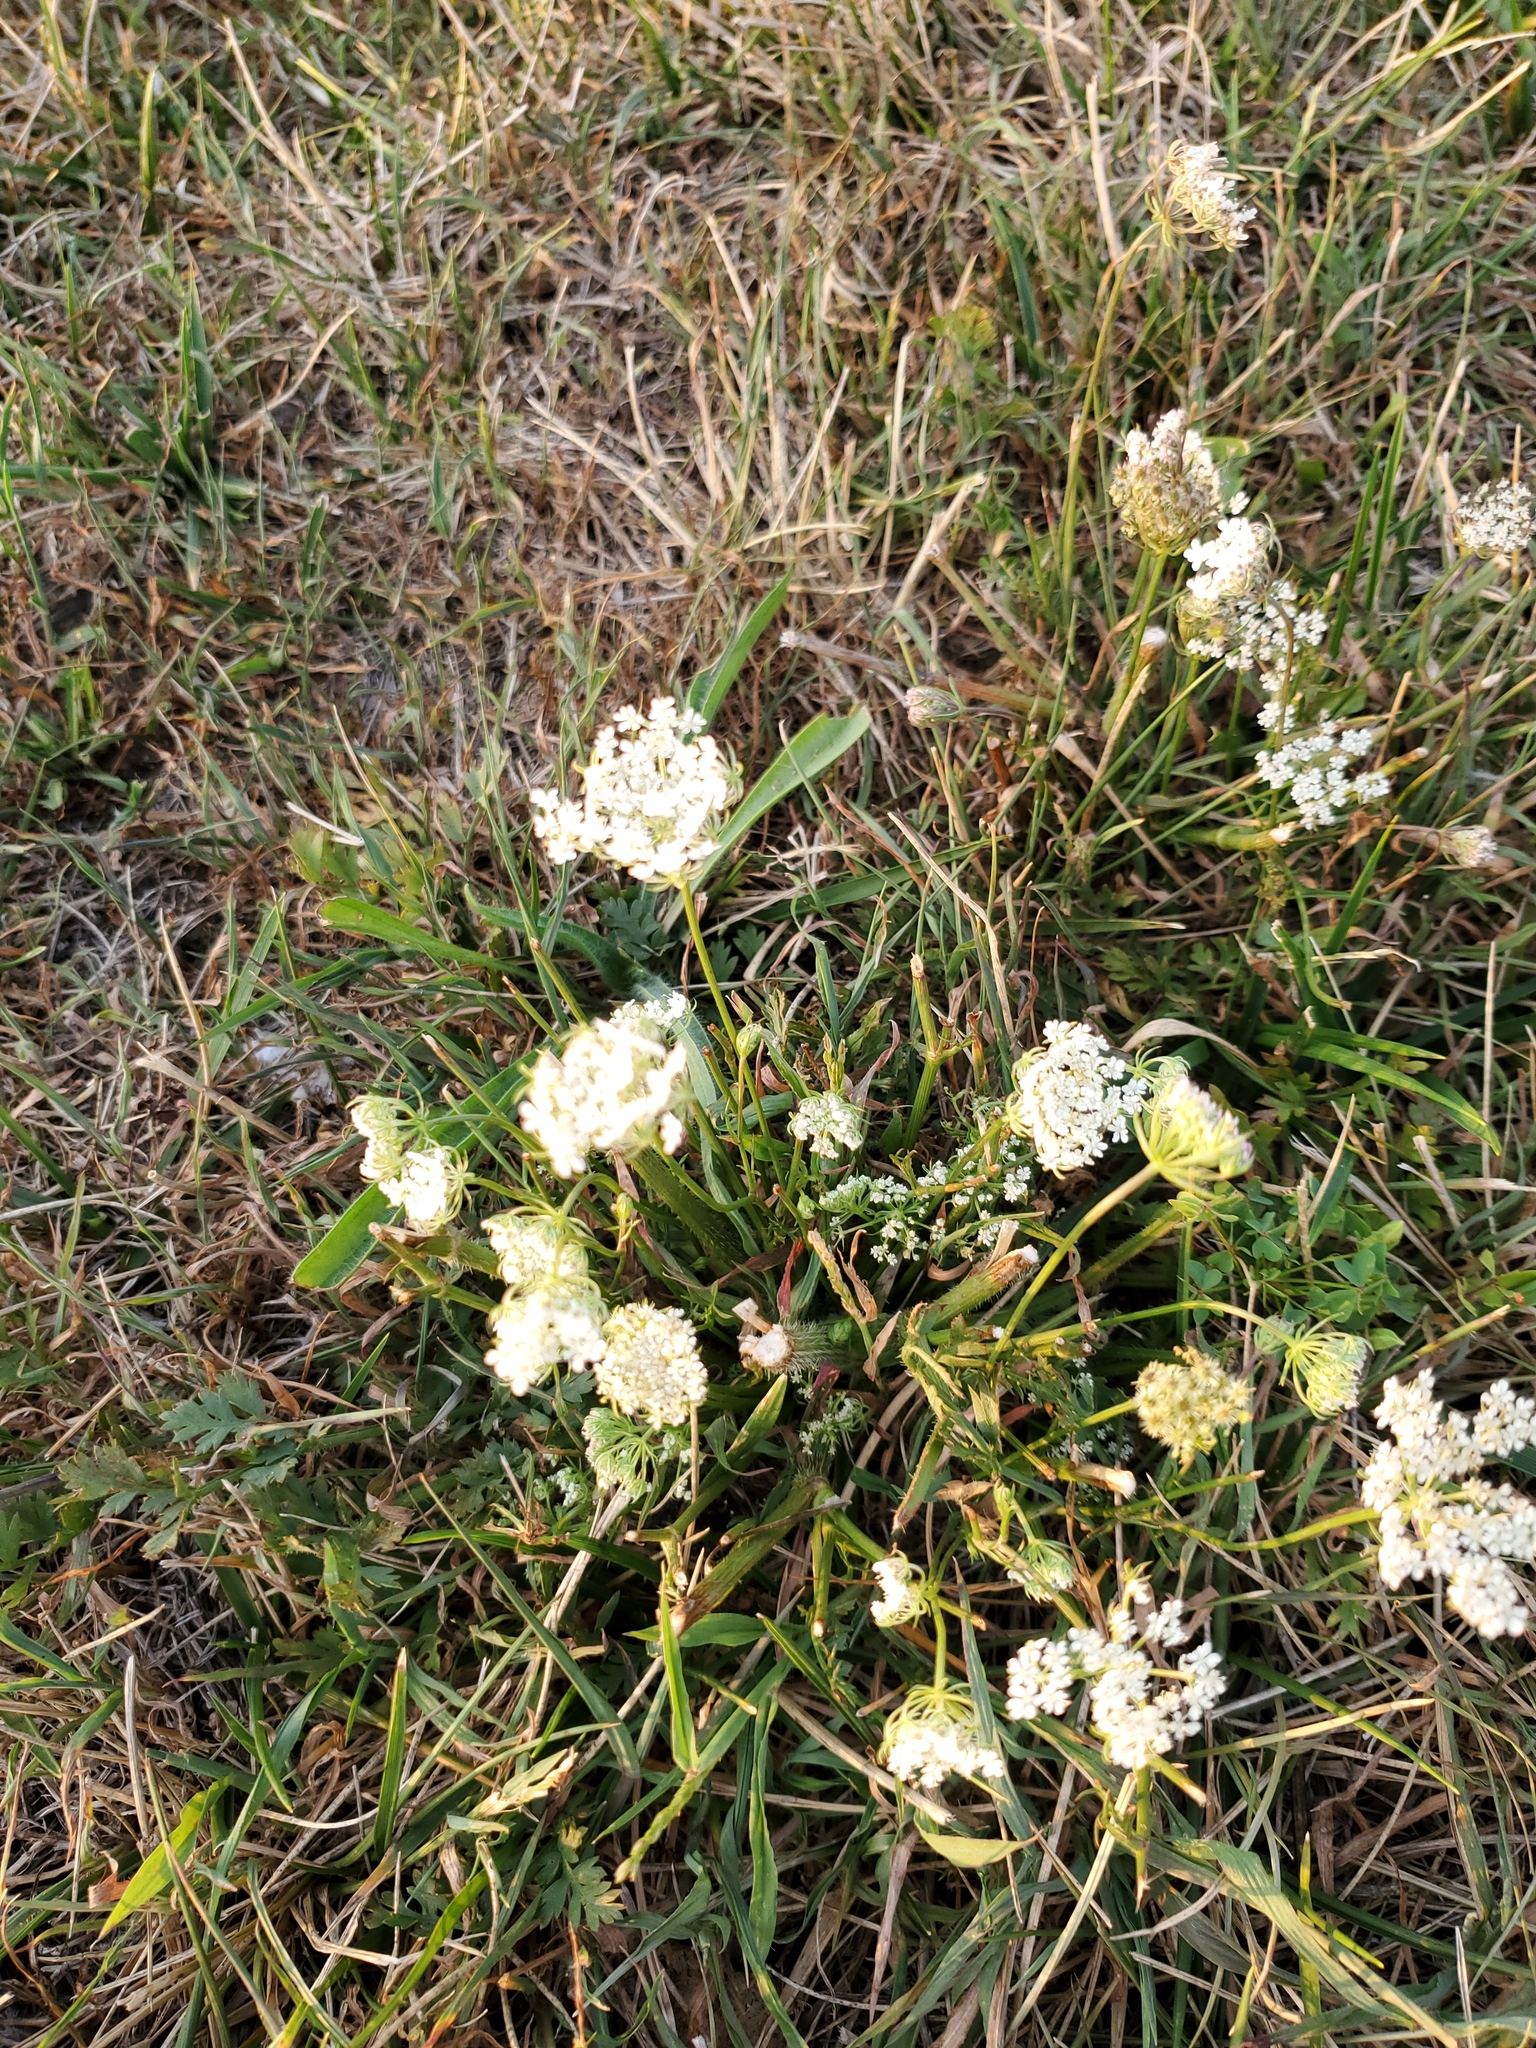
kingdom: Plantae
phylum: Tracheophyta
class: Magnoliopsida
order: Apiales
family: Apiaceae
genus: Daucus
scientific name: Daucus carota
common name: Wild carrot
